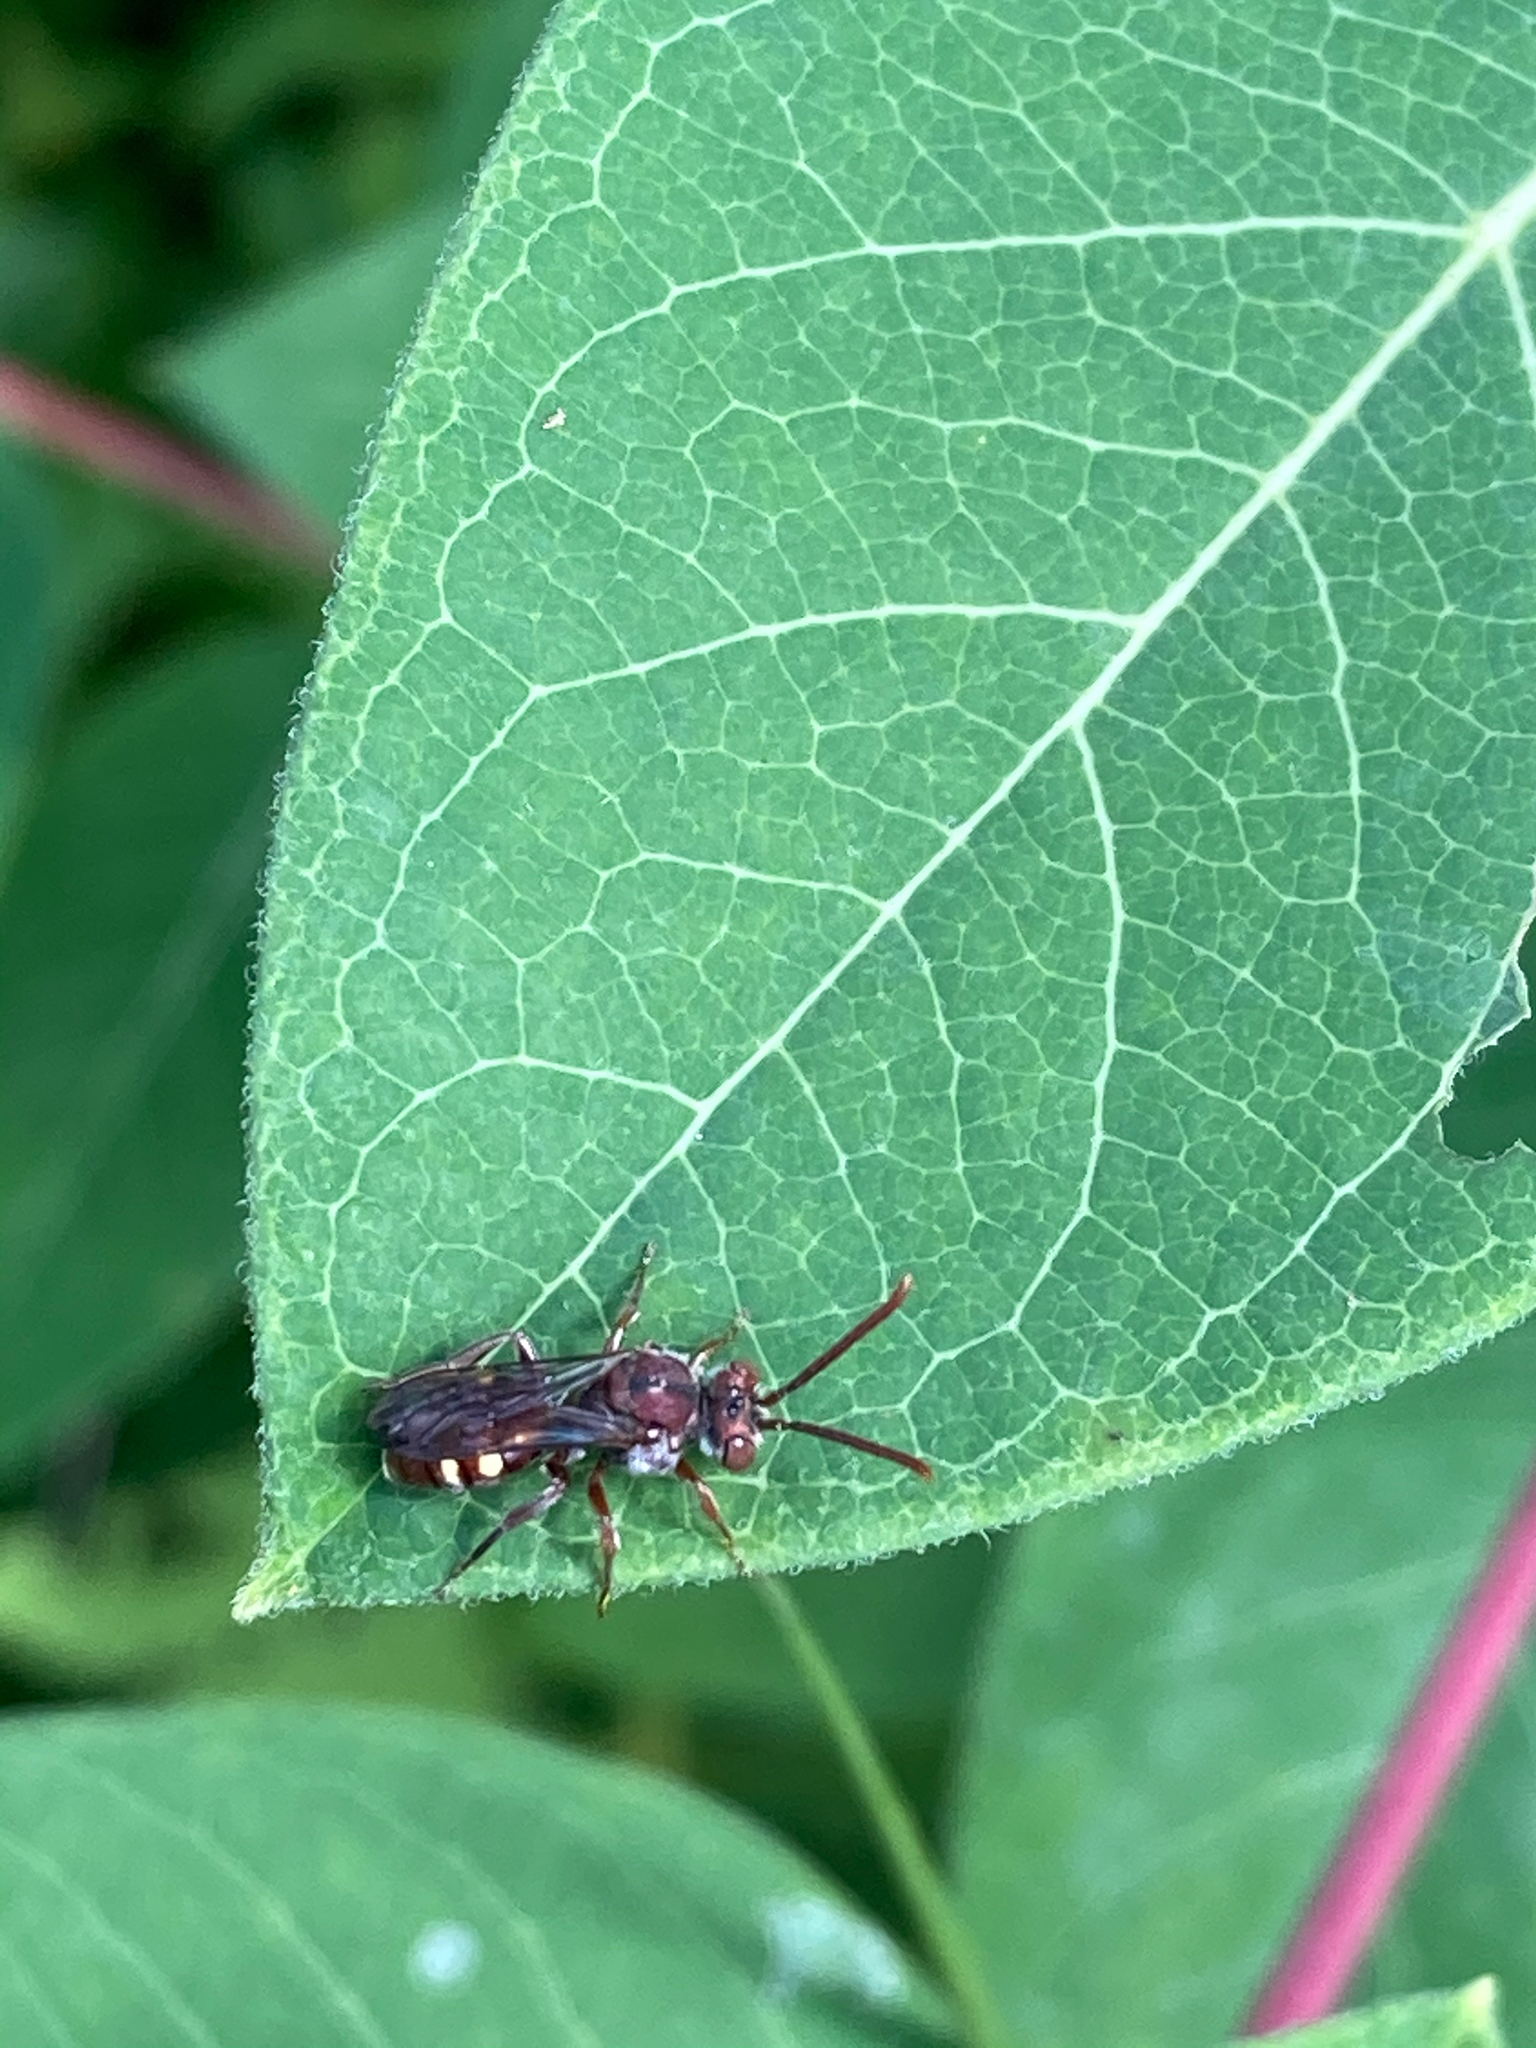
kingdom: Animalia
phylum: Arthropoda
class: Insecta
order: Hymenoptera
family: Apidae
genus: Nomada
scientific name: Nomada
